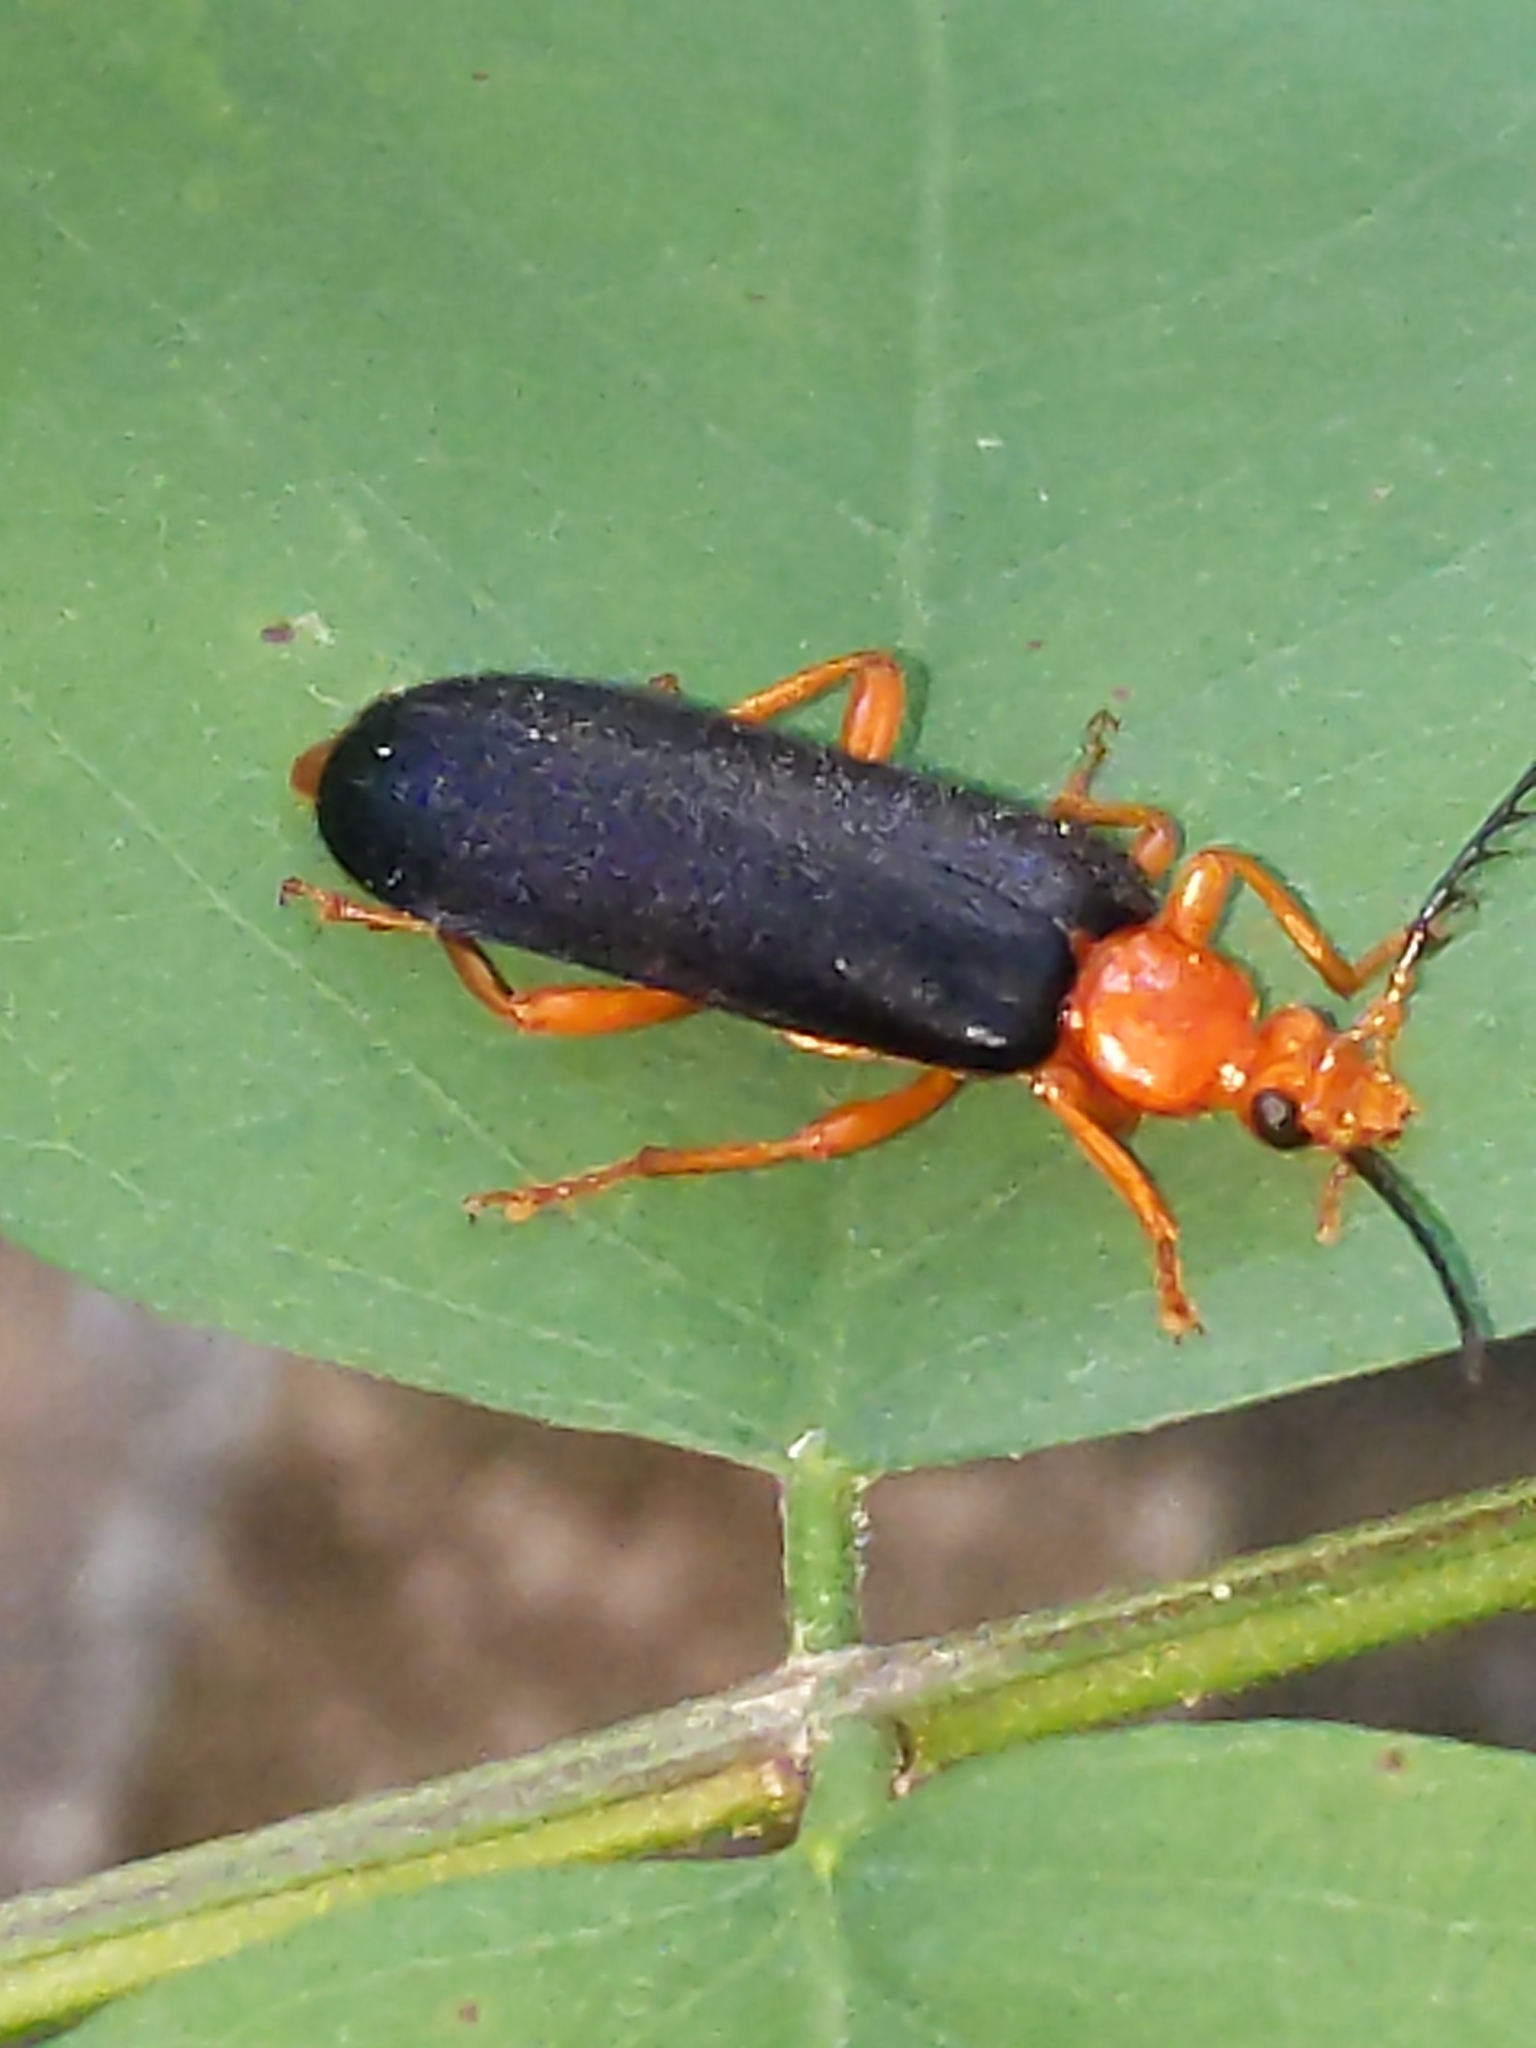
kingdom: Animalia
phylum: Arthropoda
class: Insecta
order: Coleoptera
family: Pyrochroidae
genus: Neopyrochroa
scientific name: Neopyrochroa flabellata
